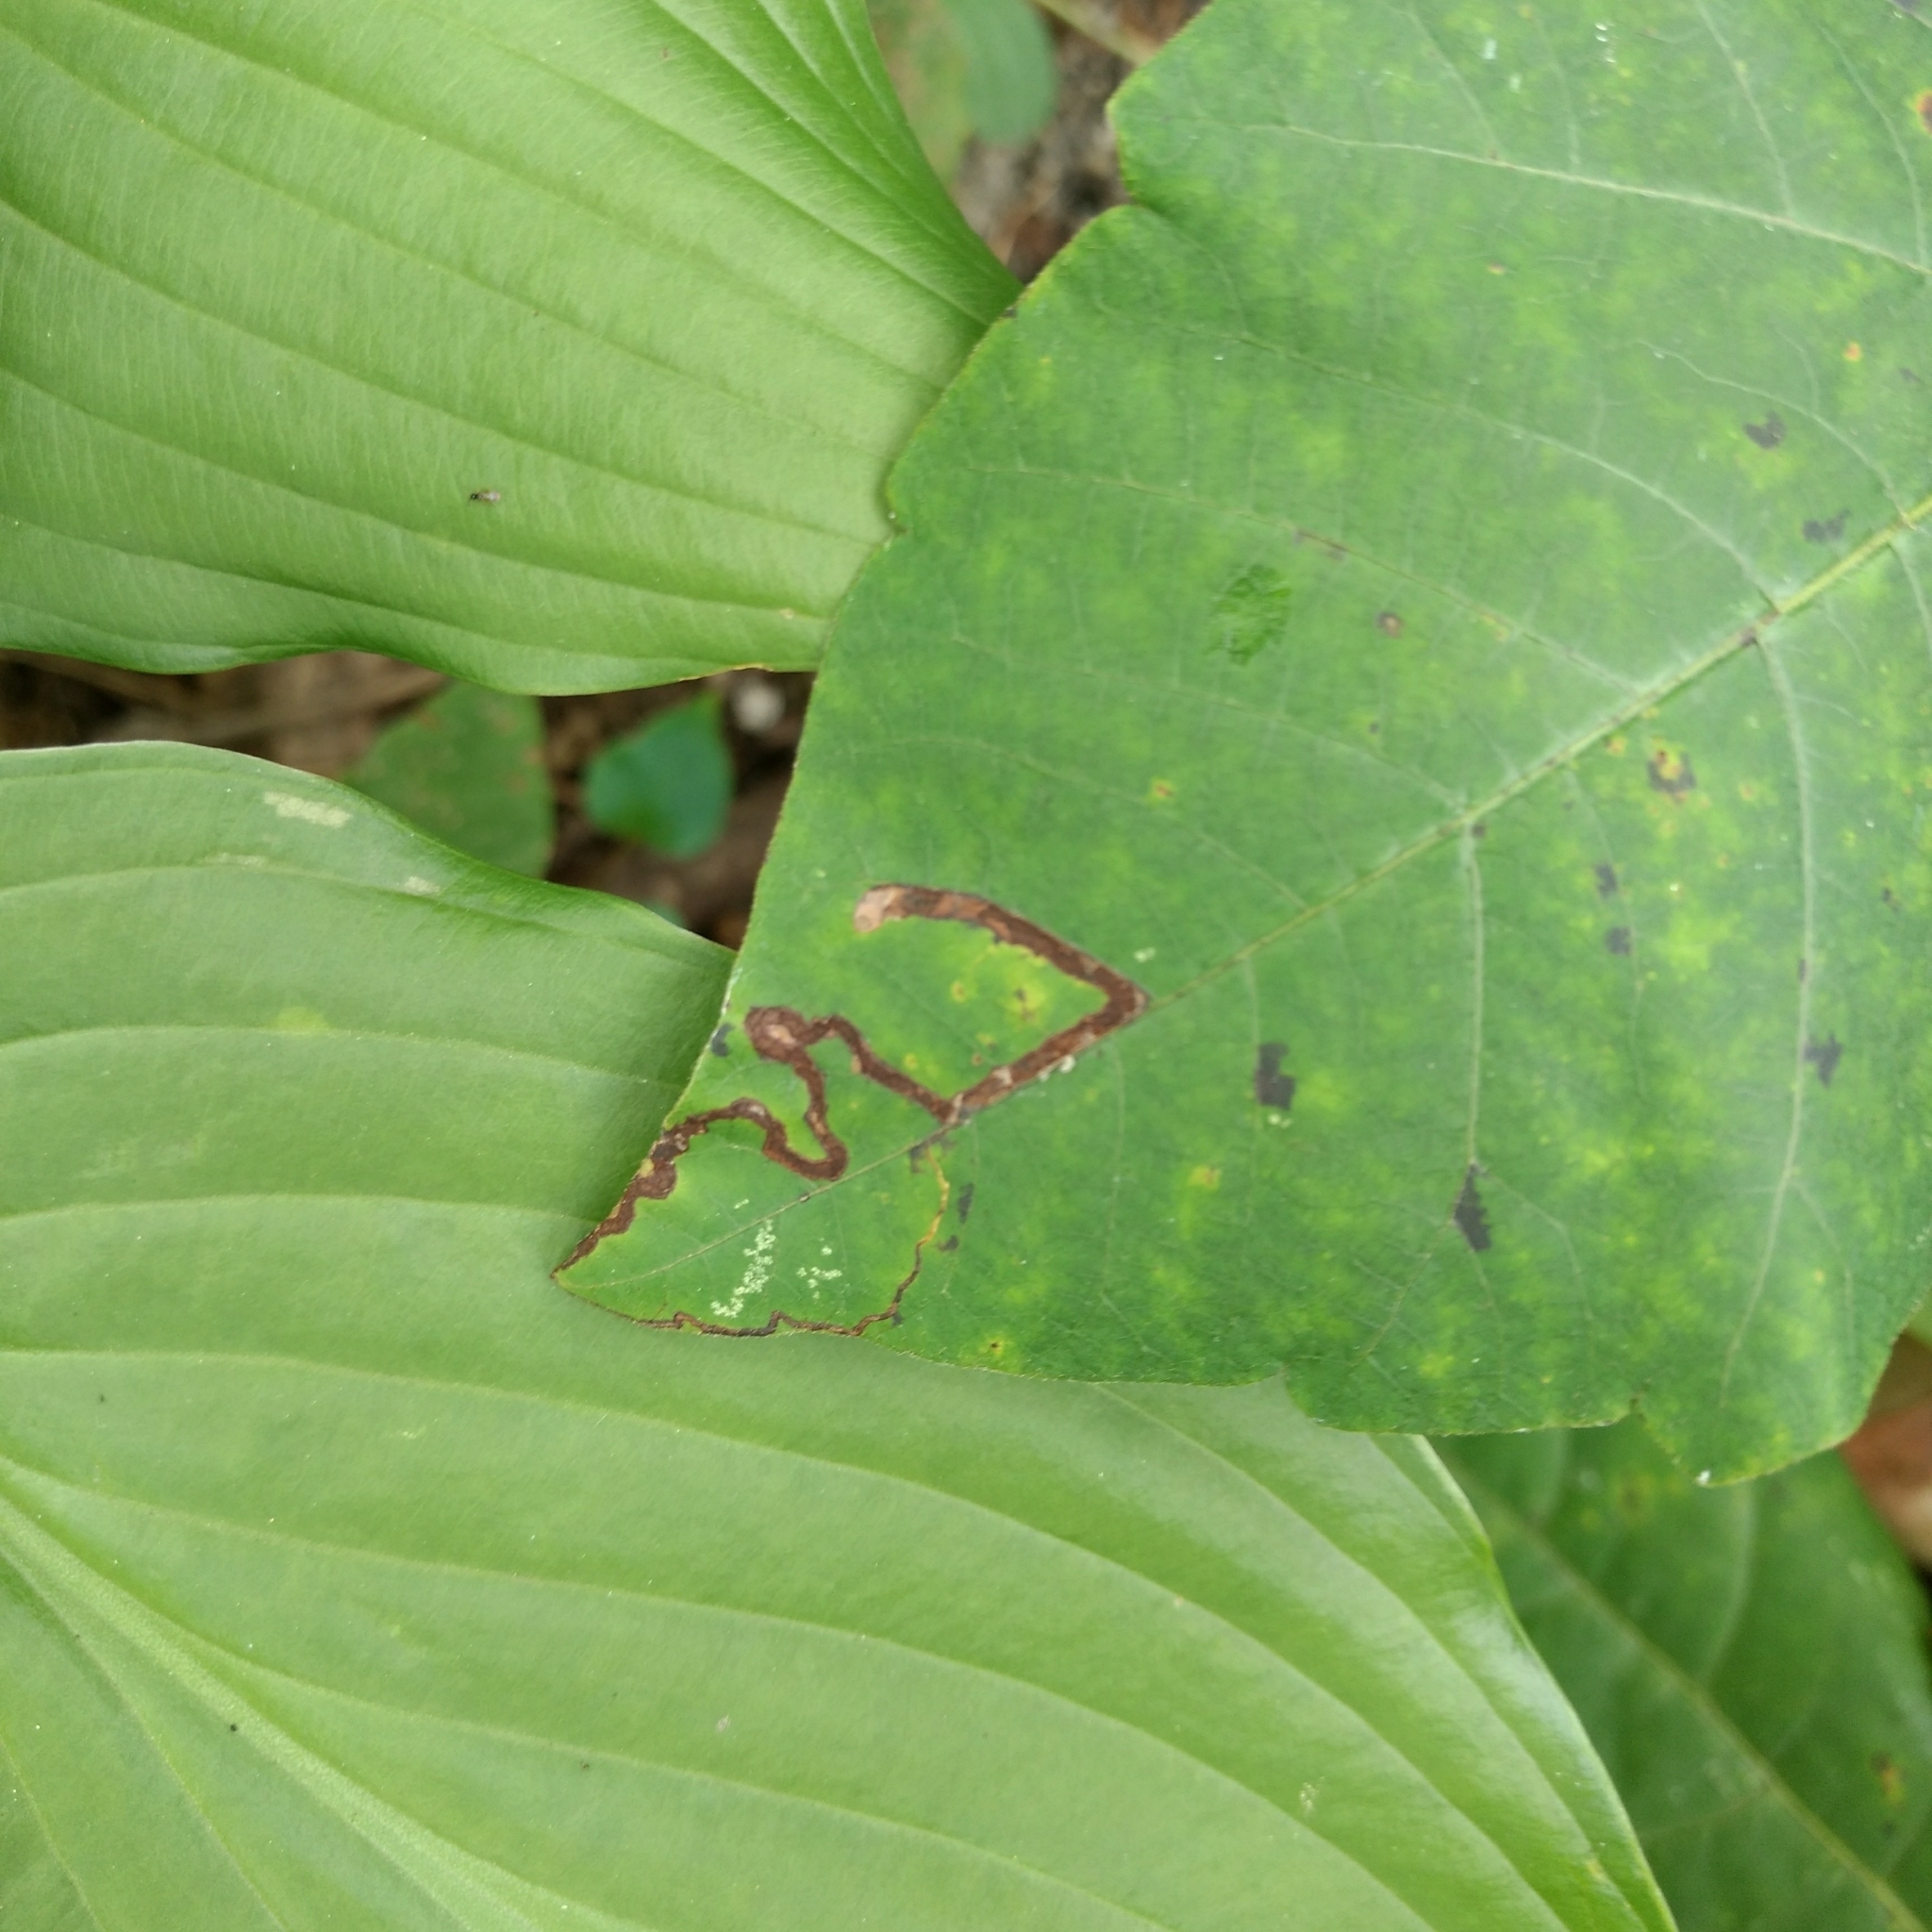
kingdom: Animalia
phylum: Arthropoda
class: Insecta
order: Lepidoptera
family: Nepticulidae
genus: Stigmella
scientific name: Stigmella rhoifoliella
